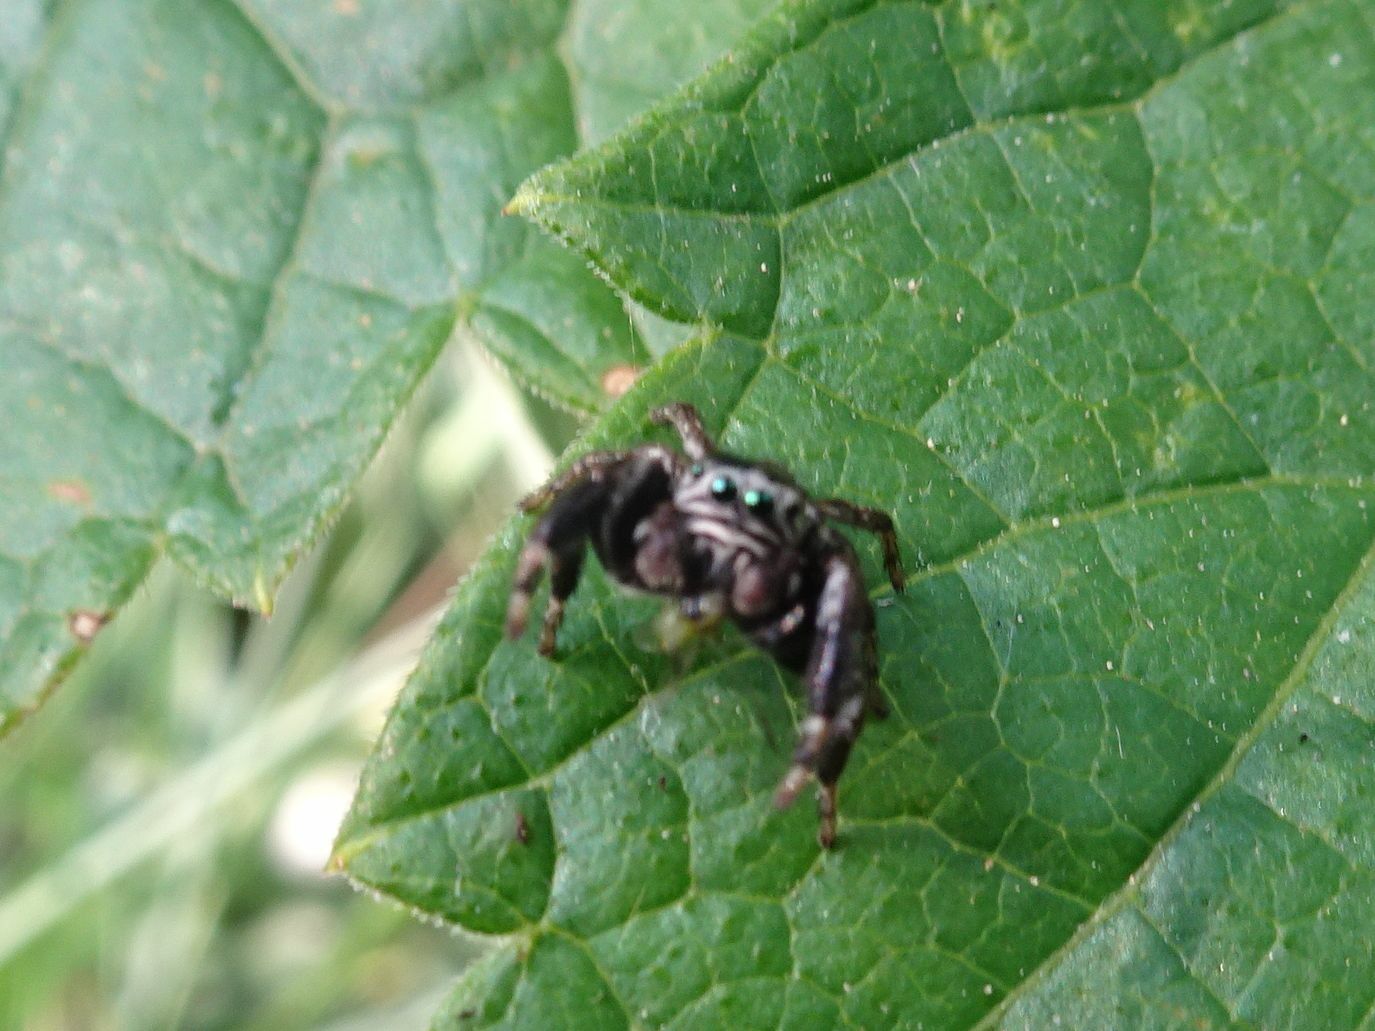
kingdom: Animalia
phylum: Arthropoda
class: Arachnida
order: Araneae
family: Salticidae
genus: Evarcha
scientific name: Evarcha arcuata
